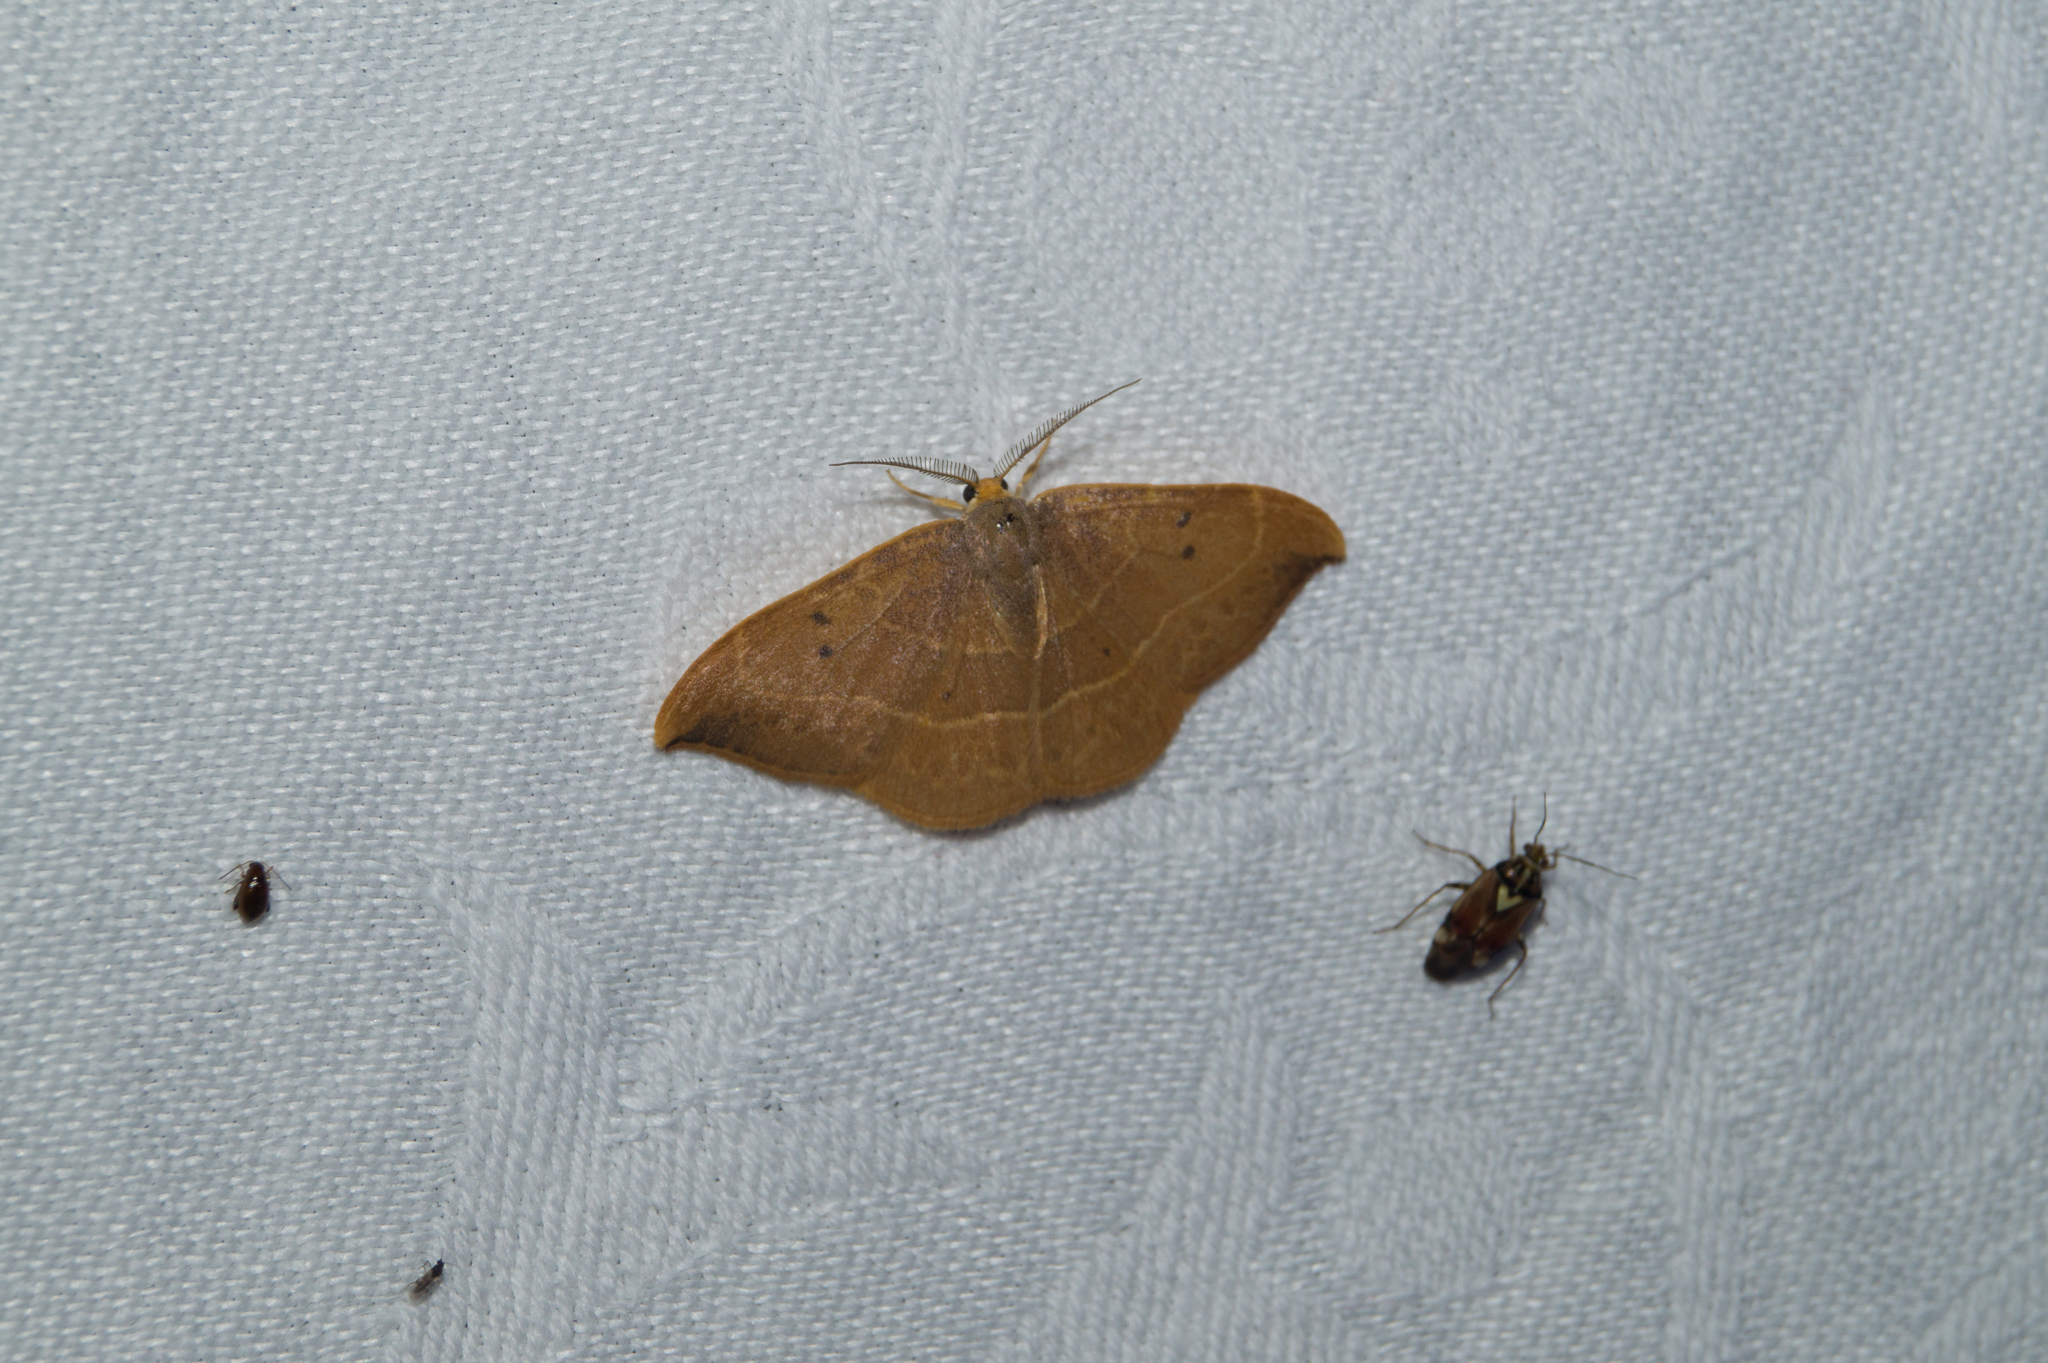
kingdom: Animalia
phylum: Arthropoda
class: Insecta
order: Lepidoptera
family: Drepanidae
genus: Watsonalla
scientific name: Watsonalla binaria
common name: Oak hook-tip
